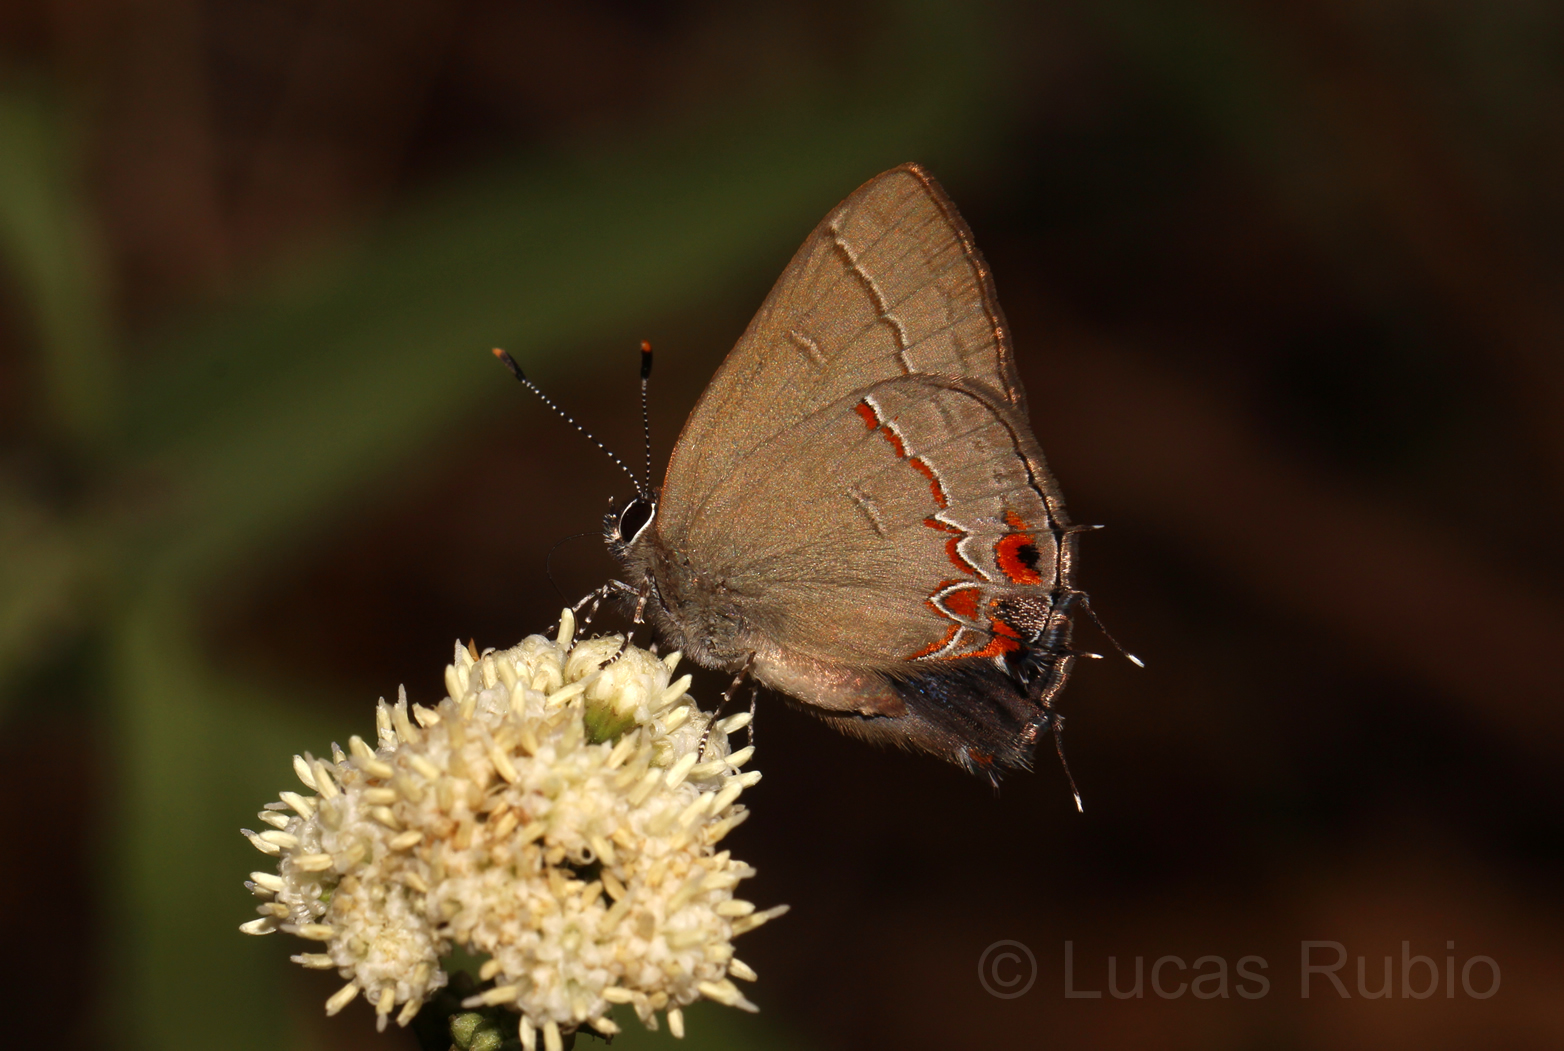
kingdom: Animalia
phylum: Arthropoda
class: Insecta
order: Lepidoptera
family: Lycaenidae
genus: Calycopis
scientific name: Calycopis caulonia
